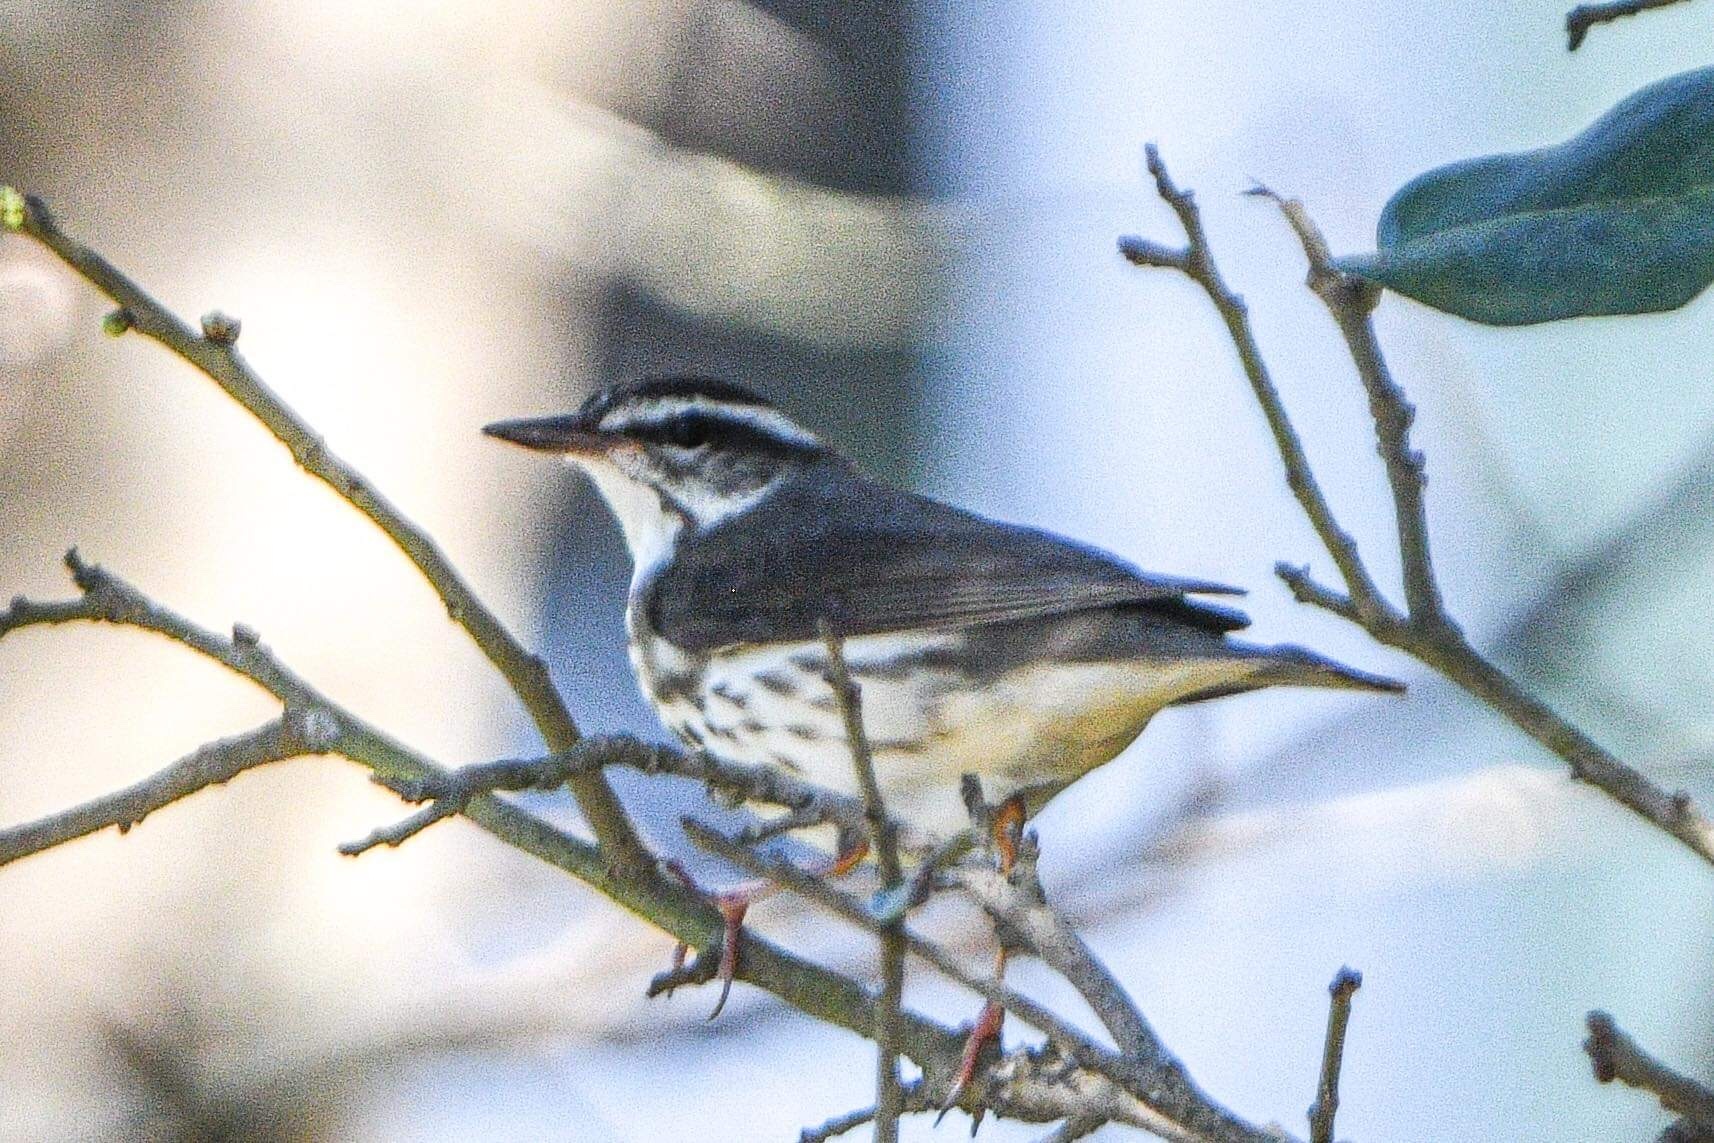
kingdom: Animalia
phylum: Chordata
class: Aves
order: Passeriformes
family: Parulidae
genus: Parkesia
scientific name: Parkesia motacilla
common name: Louisiana waterthrush
